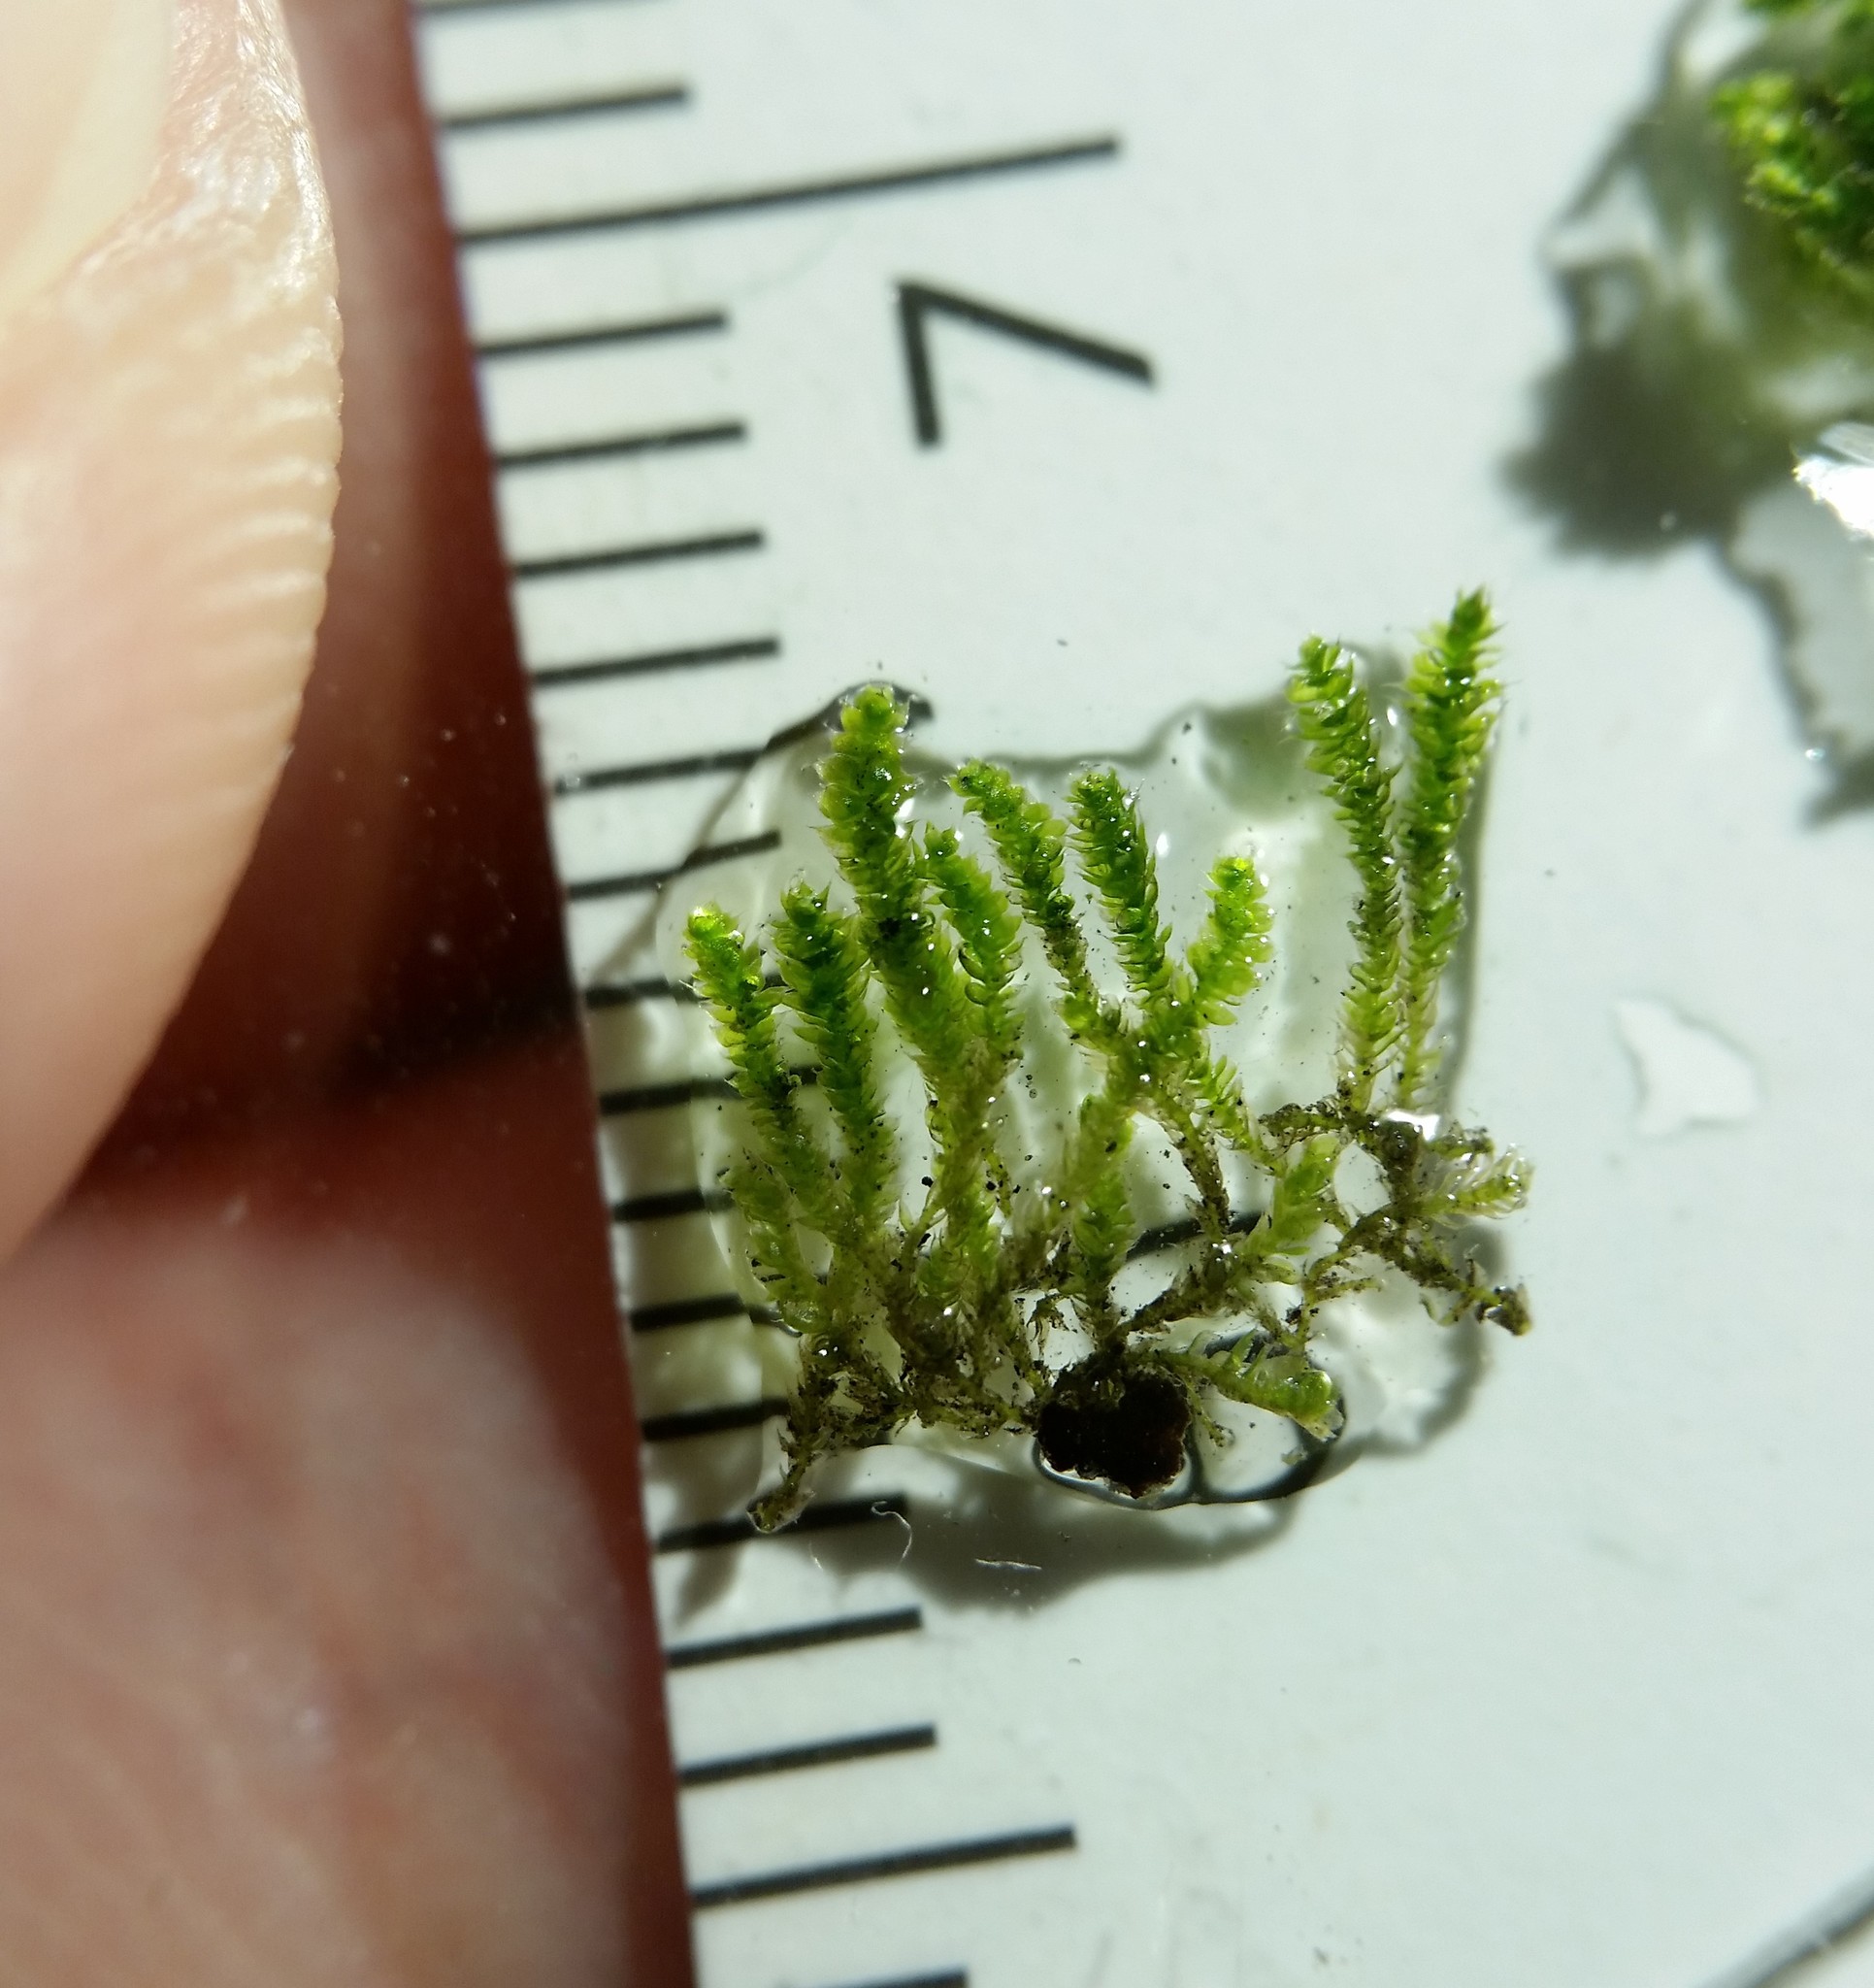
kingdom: Plantae
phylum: Bryophyta
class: Bryopsida
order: Hypnales
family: Fabroniaceae
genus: Fabronia
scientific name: Fabronia ciliaris
